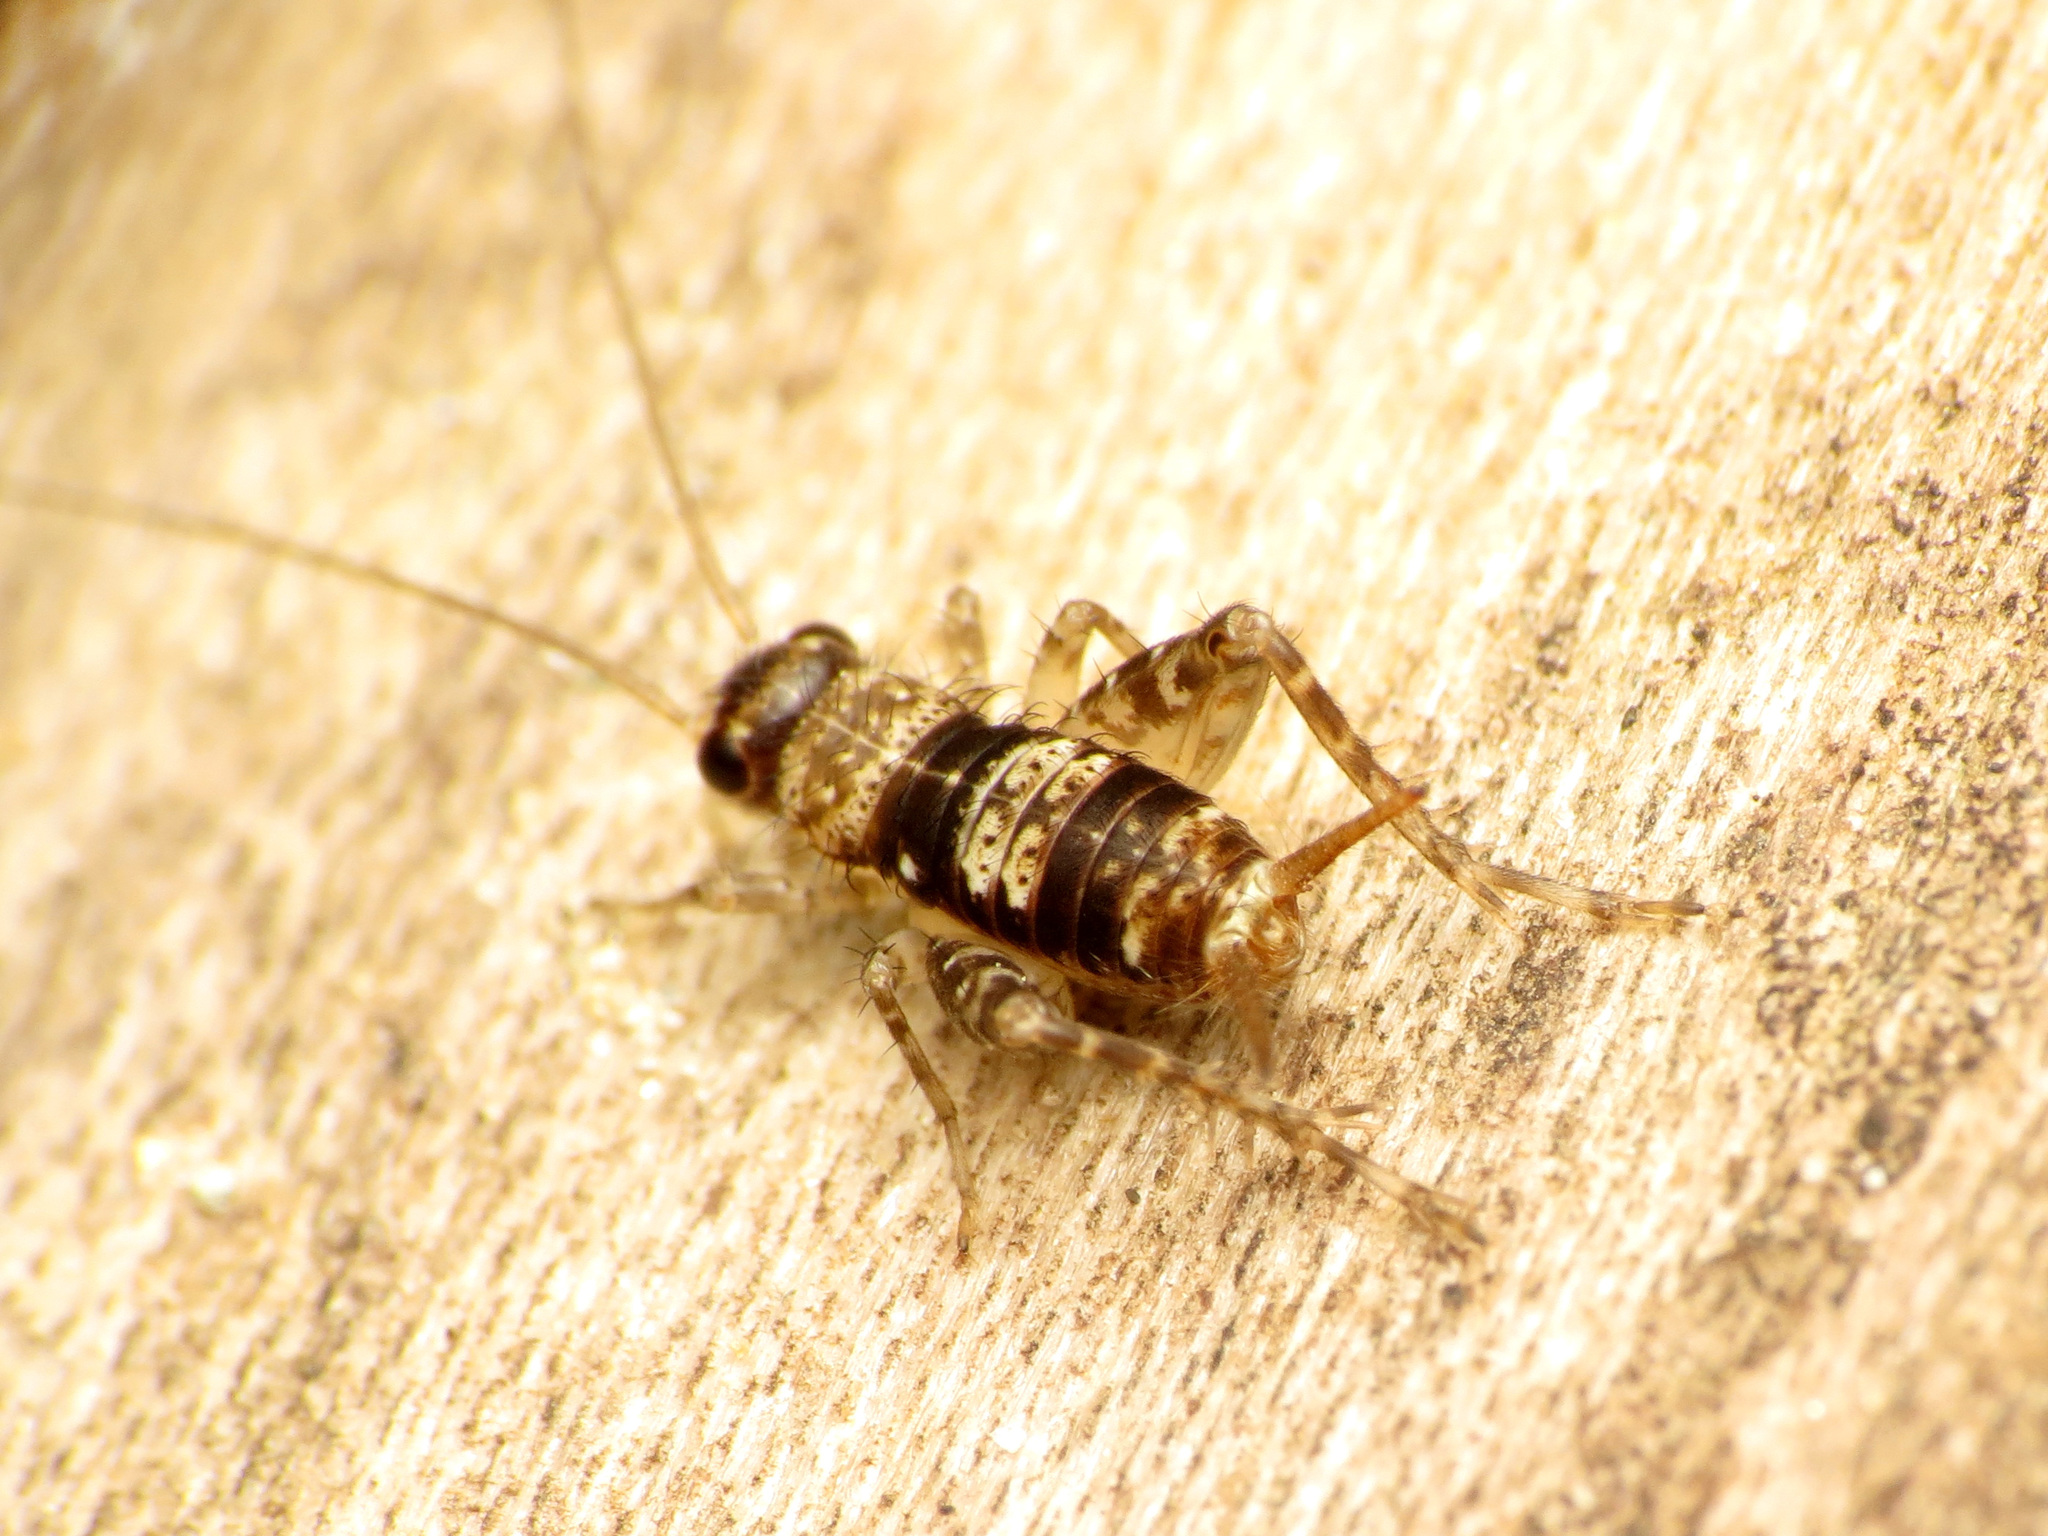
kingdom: Animalia
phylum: Arthropoda
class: Insecta
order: Orthoptera
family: Trigonidiidae
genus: Allonemobius
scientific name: Allonemobius maculatus
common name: Larger spotted ground cricket
